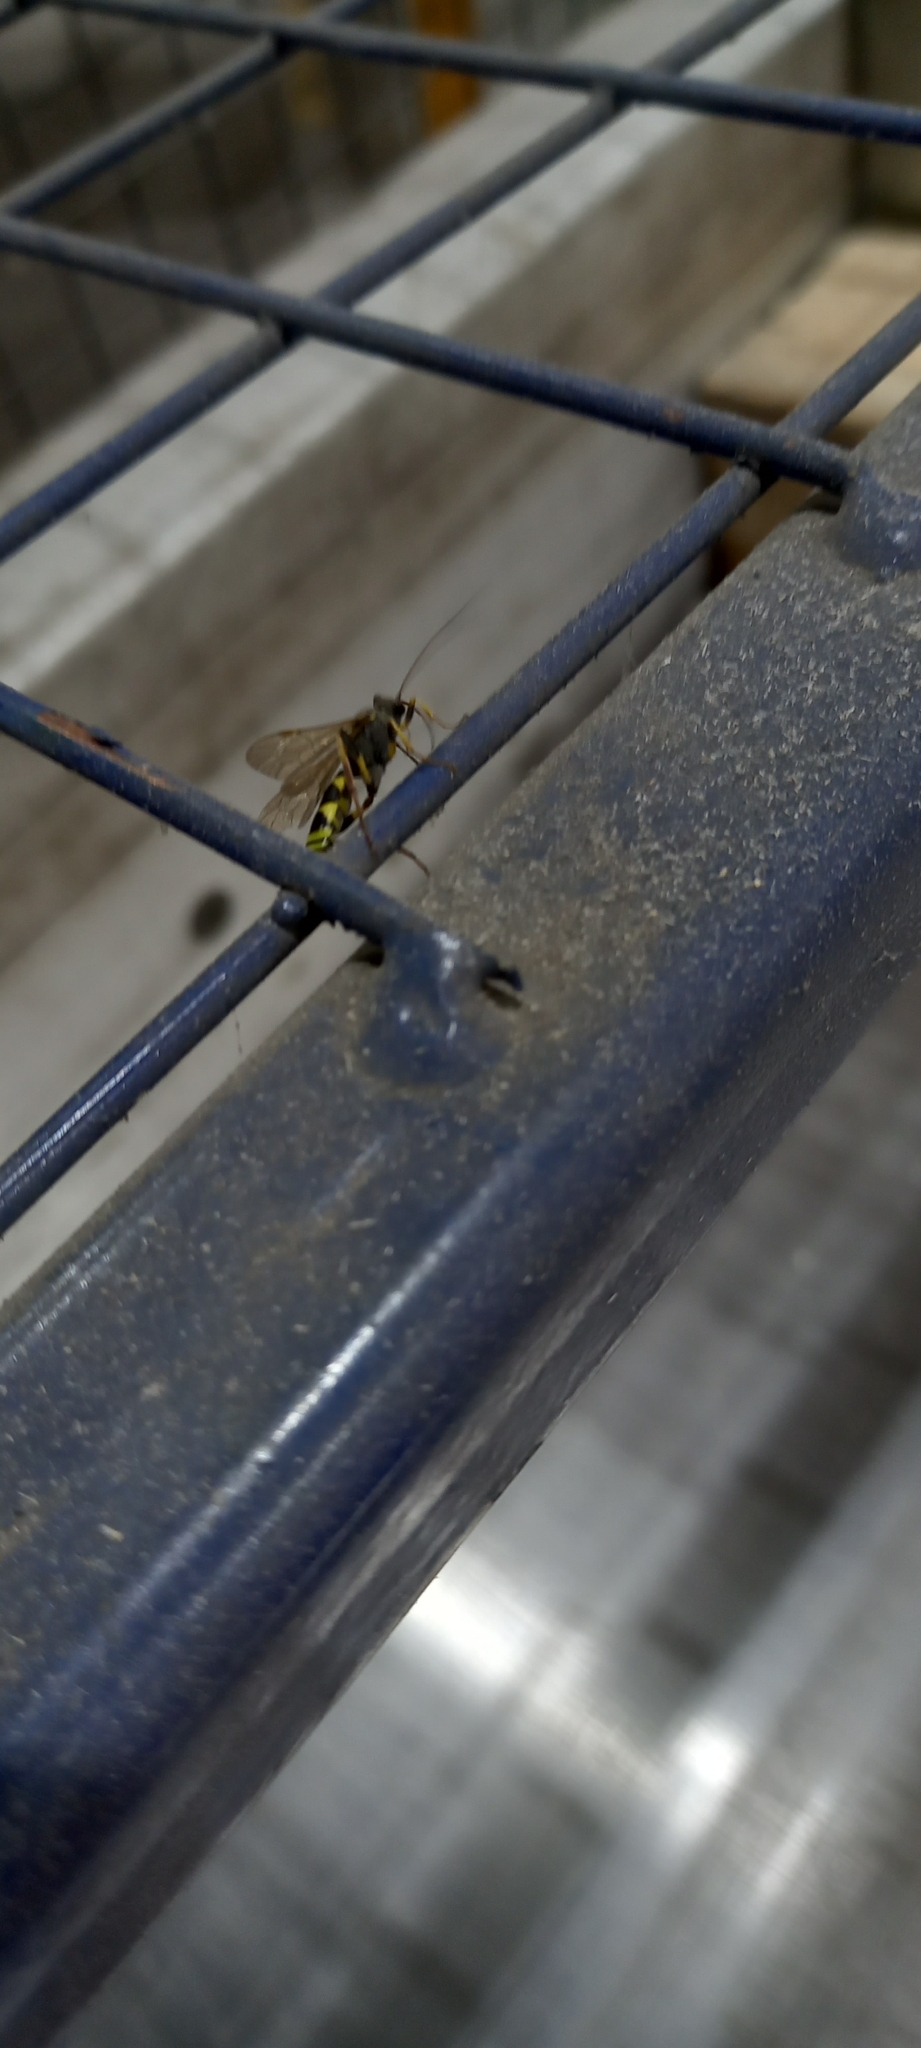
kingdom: Animalia
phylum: Arthropoda
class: Insecta
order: Hymenoptera
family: Ichneumonidae
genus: Amblyteles
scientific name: Amblyteles armatorius
